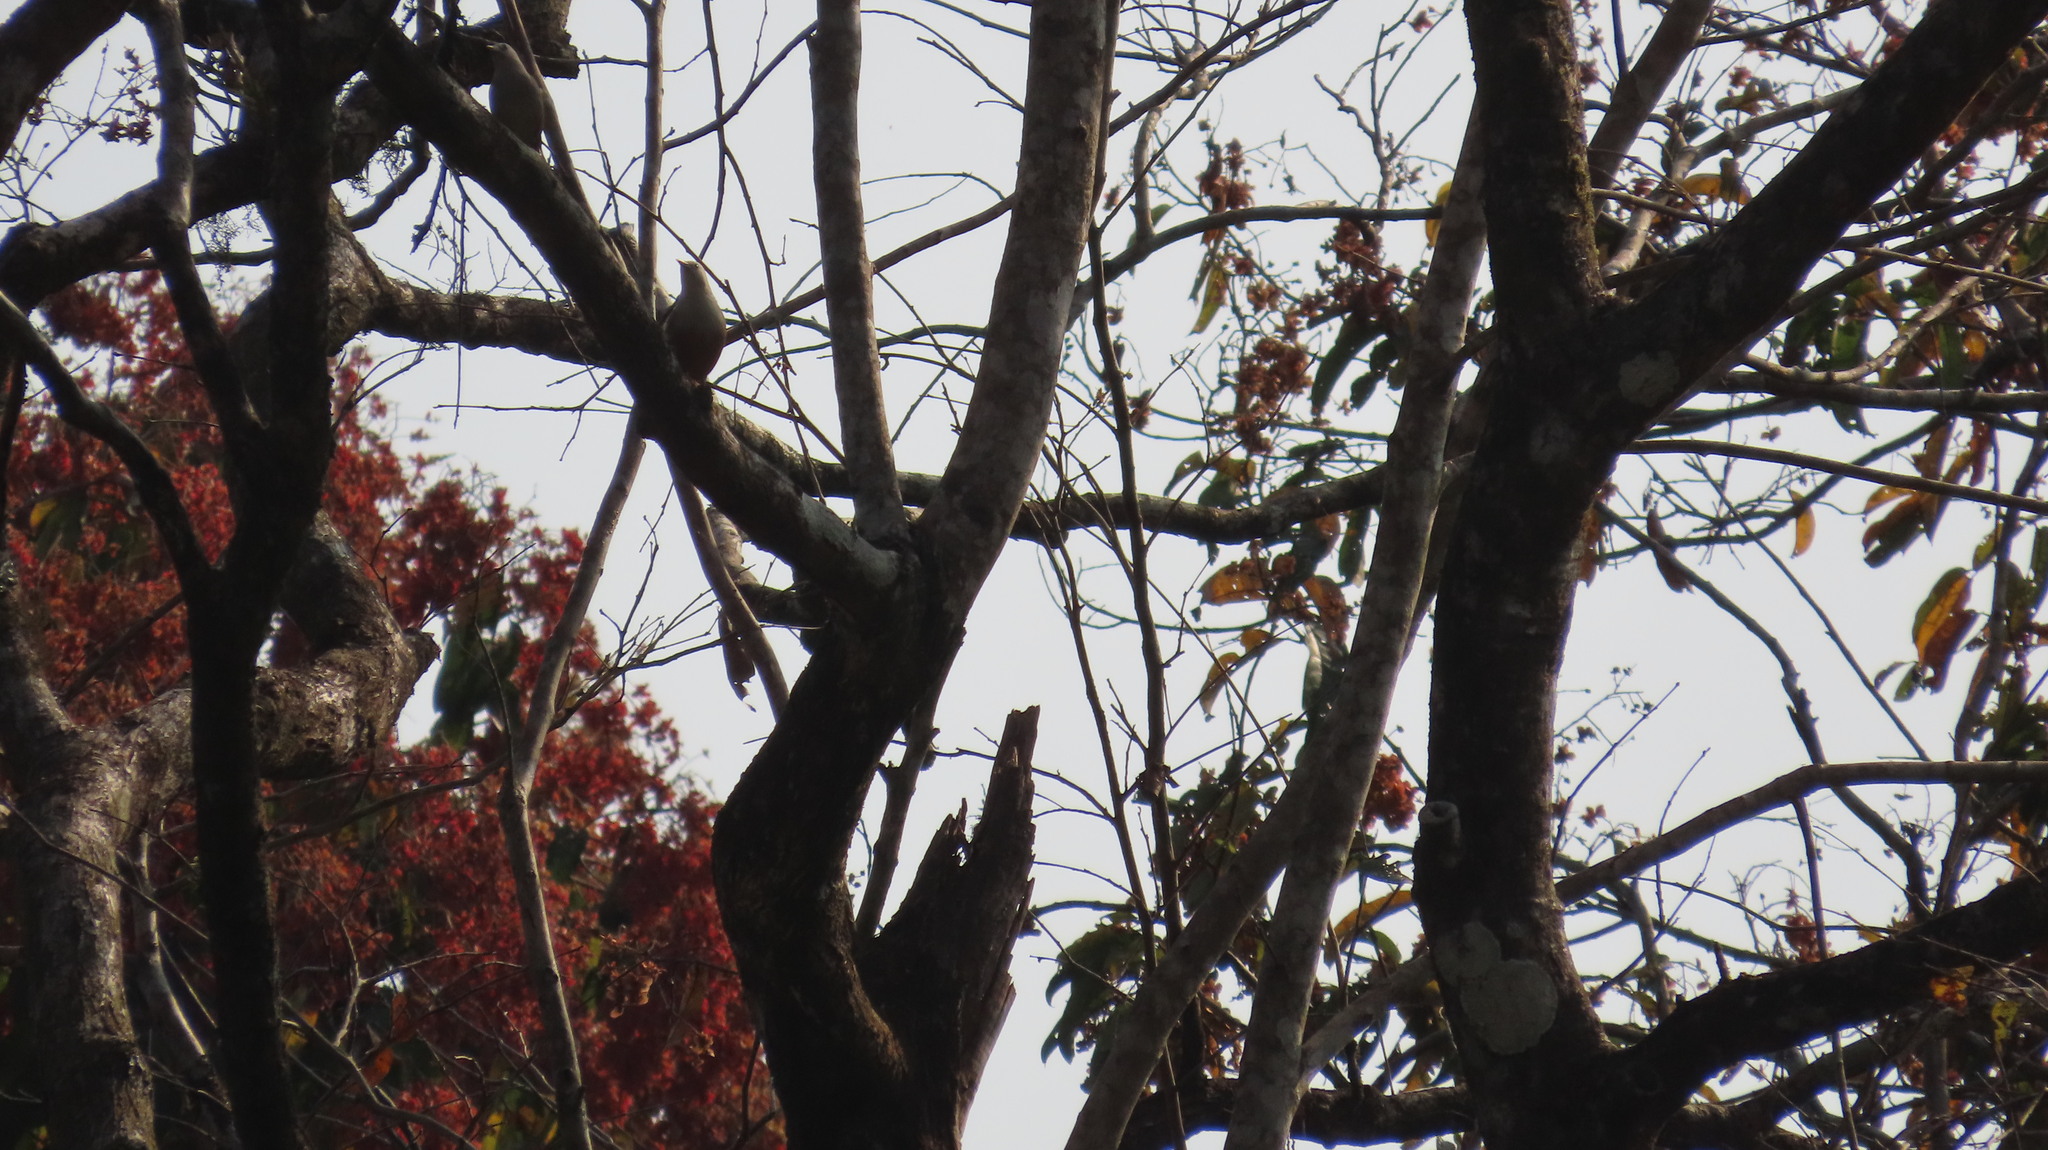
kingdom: Animalia
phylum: Chordata
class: Aves
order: Passeriformes
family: Sturnidae
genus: Sturnia
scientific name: Sturnia malabarica
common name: Chestnut-tailed starling
